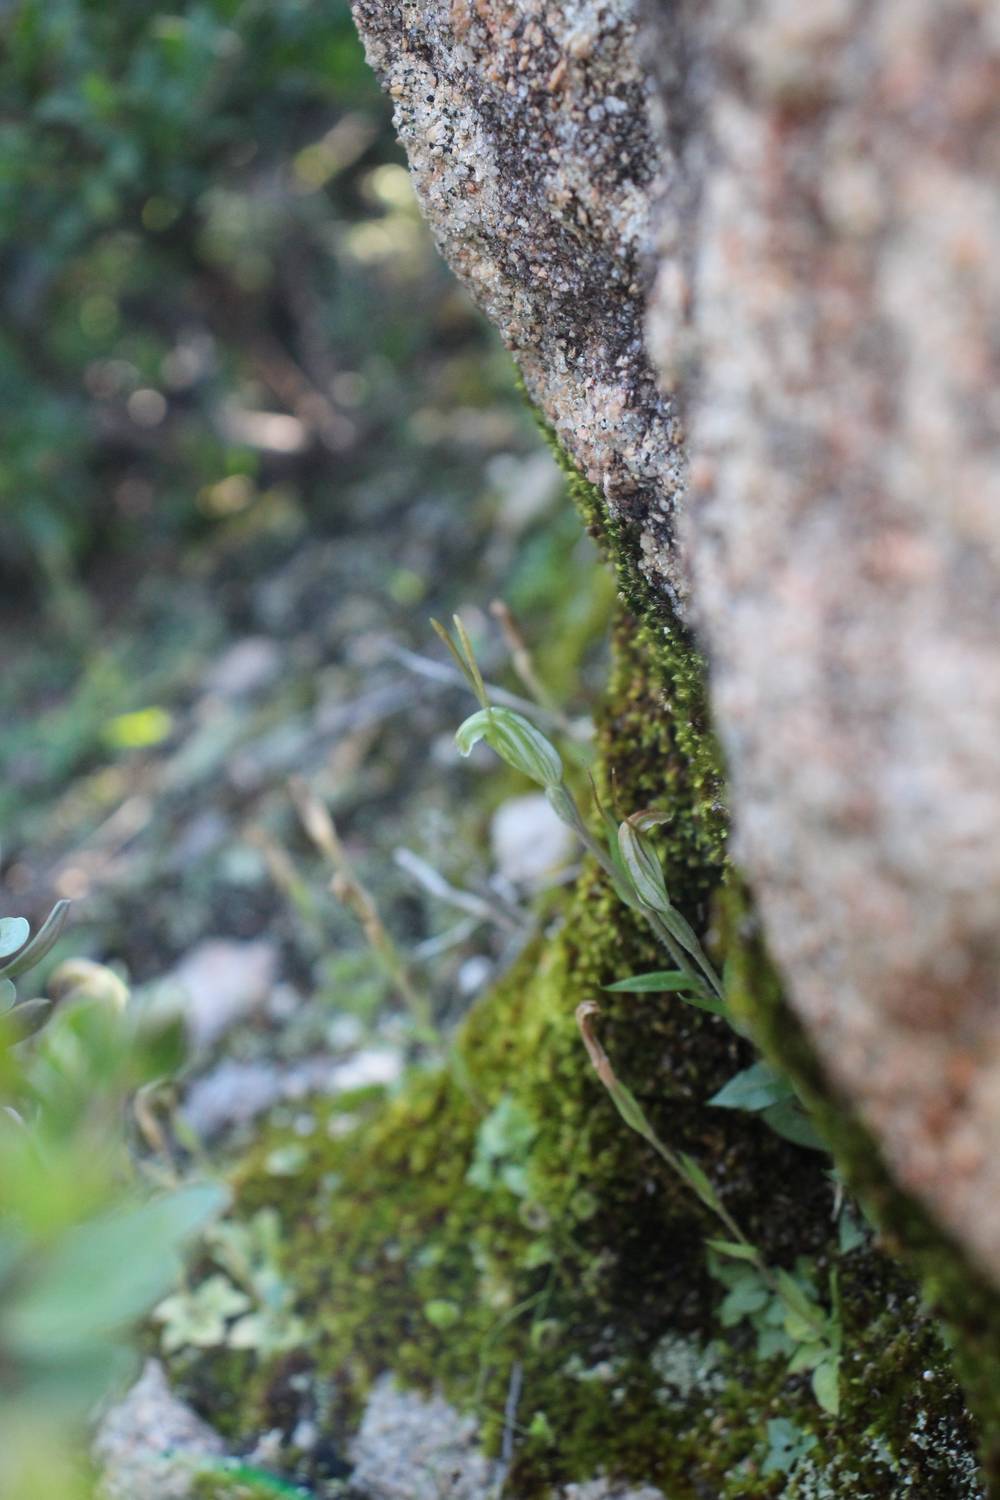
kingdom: Plantae
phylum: Tracheophyta
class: Liliopsida
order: Asparagales
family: Orchidaceae
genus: Pterostylis
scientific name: Pterostylis timothyi
